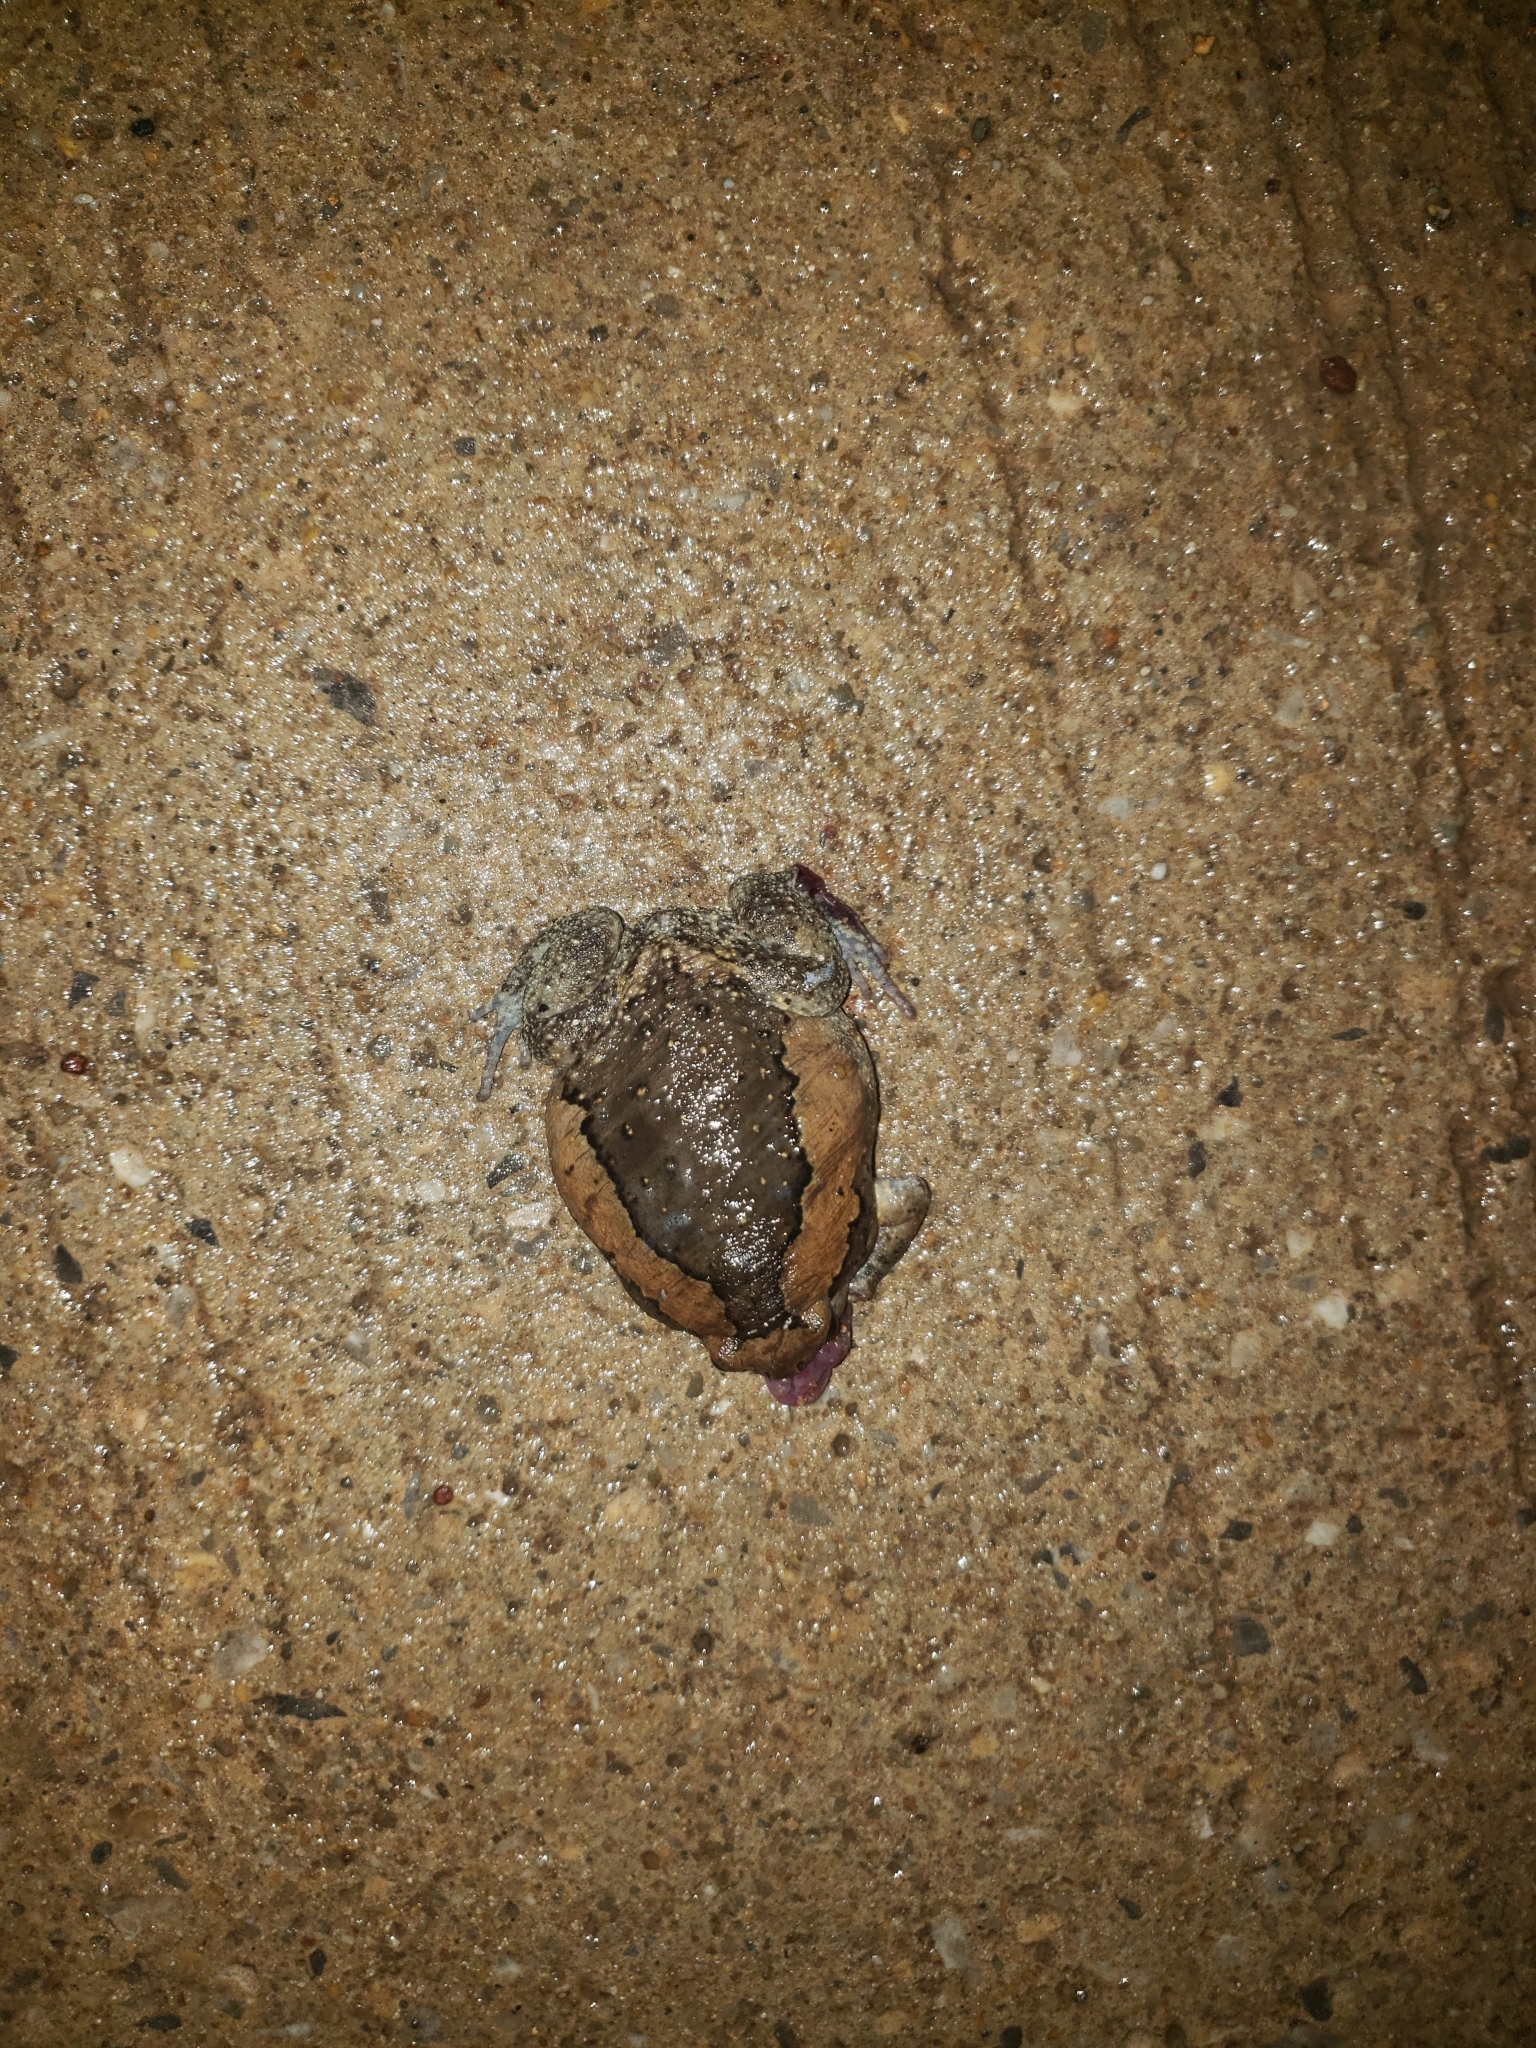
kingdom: Animalia
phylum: Chordata
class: Amphibia
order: Anura
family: Microhylidae
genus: Kaloula
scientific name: Kaloula pulchra
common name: Common,banded bullfrog
